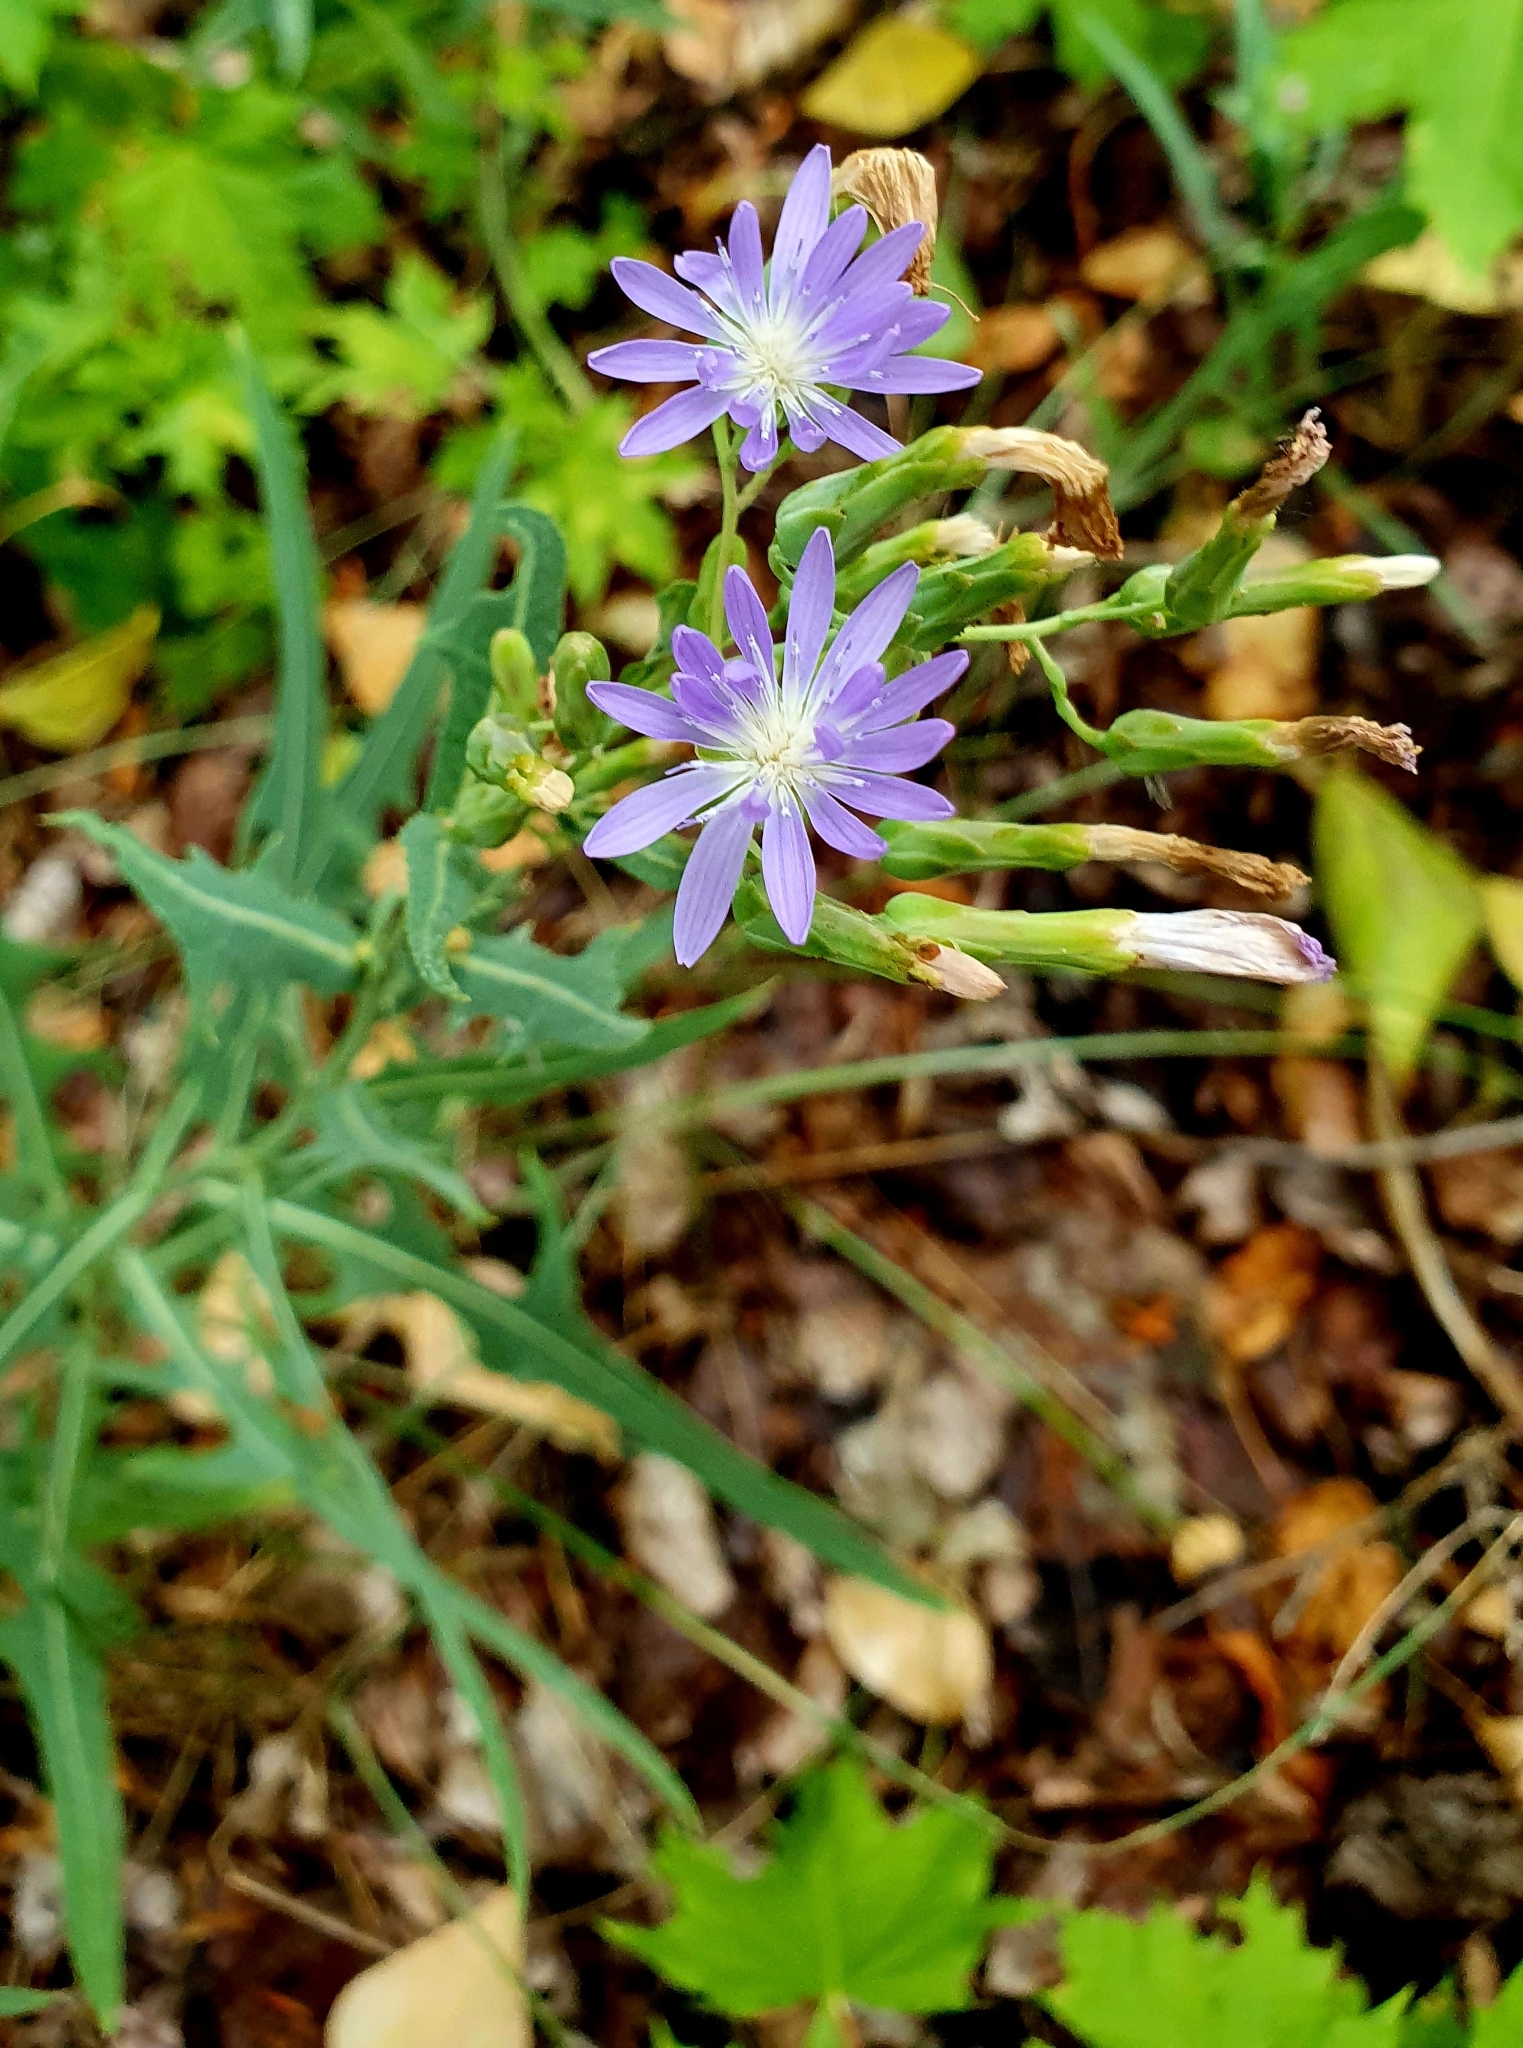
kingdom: Plantae
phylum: Tracheophyta
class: Magnoliopsida
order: Asterales
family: Asteraceae
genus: Lactuca
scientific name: Lactuca tatarica
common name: Blue lettuce
